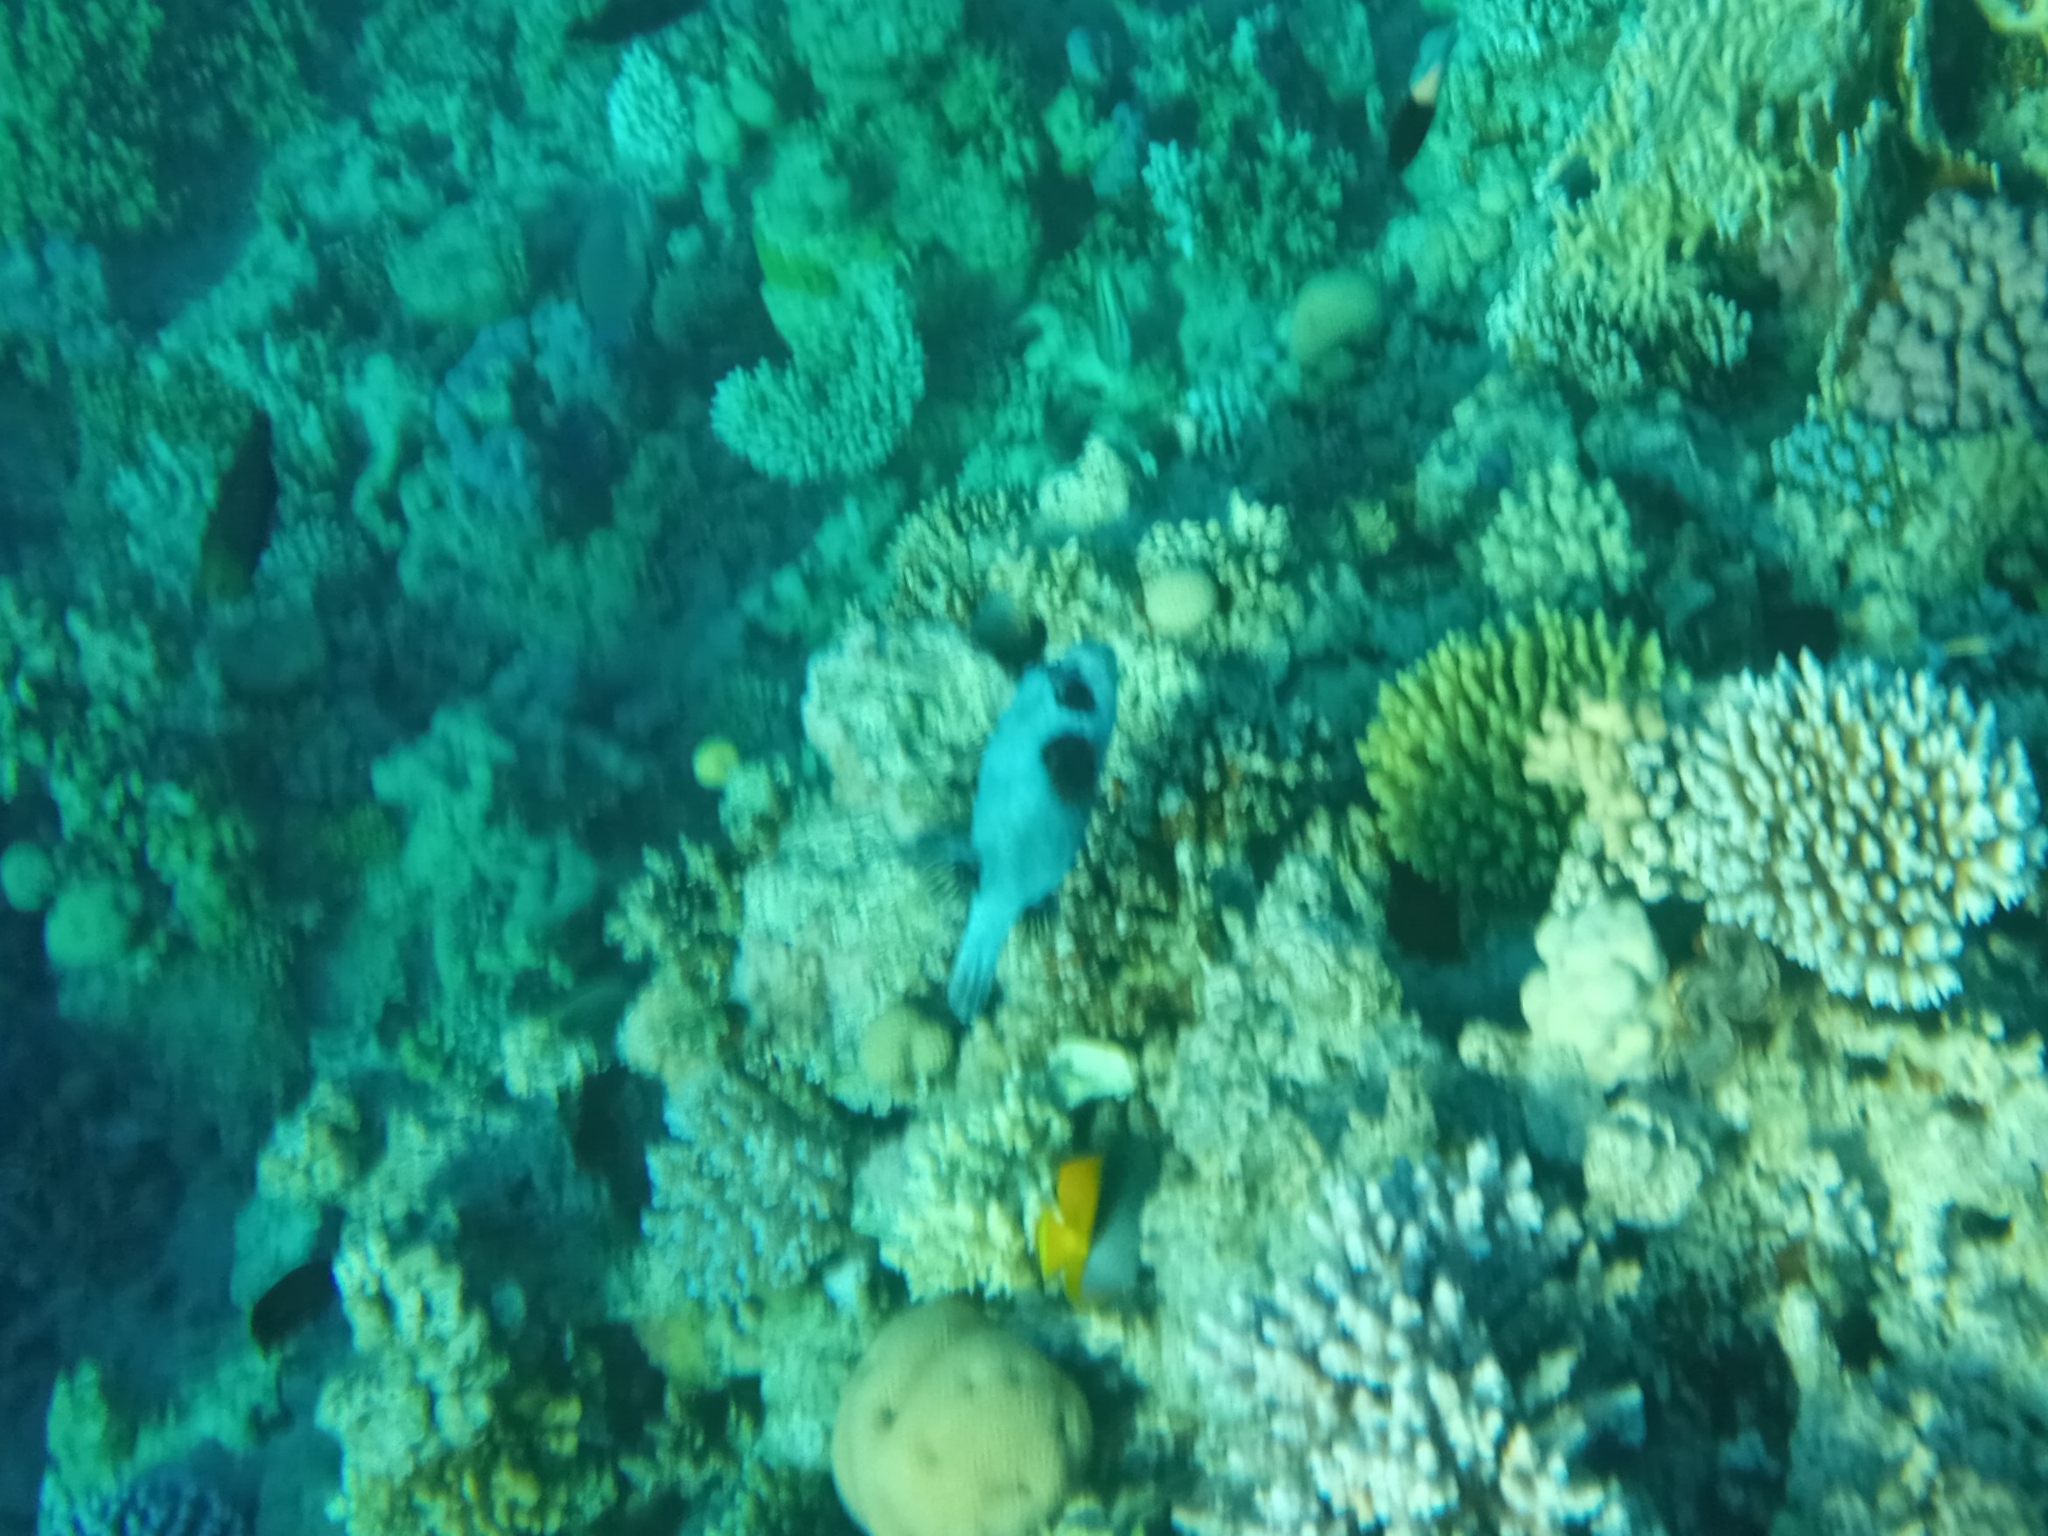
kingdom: Animalia
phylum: Chordata
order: Tetraodontiformes
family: Tetraodontidae
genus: Arothron
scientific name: Arothron diadematus
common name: Masked puffer
